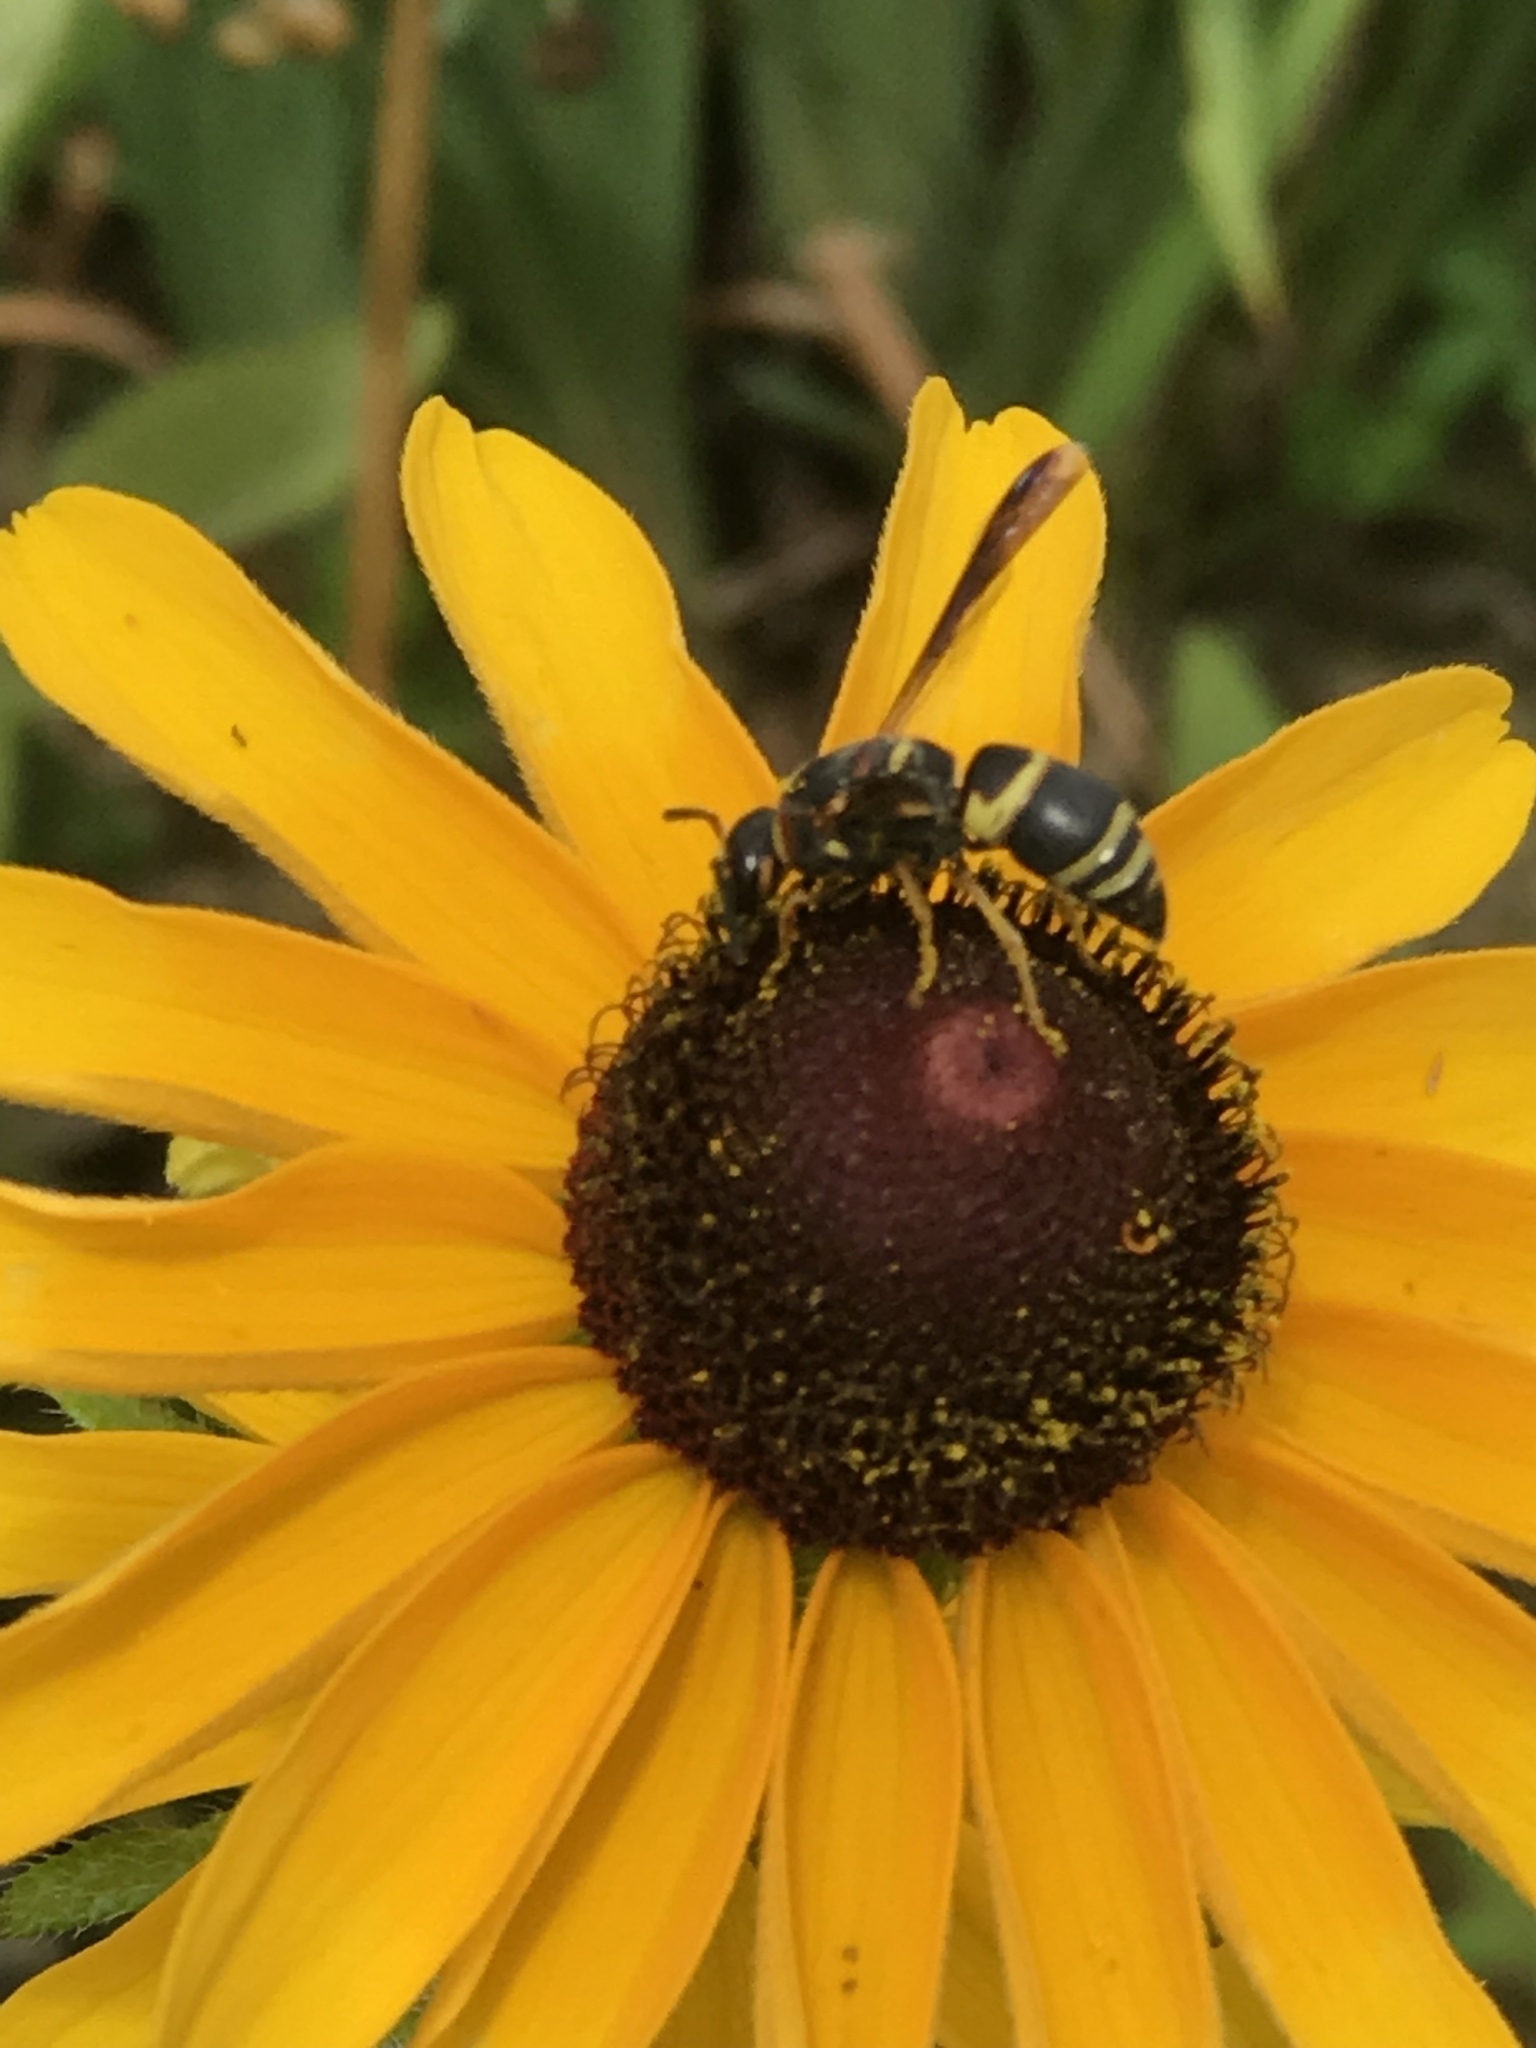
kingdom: Animalia
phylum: Arthropoda
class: Insecta
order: Hymenoptera
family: Eumenidae
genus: Euodynerus
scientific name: Euodynerus hidalgo
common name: Wasp
